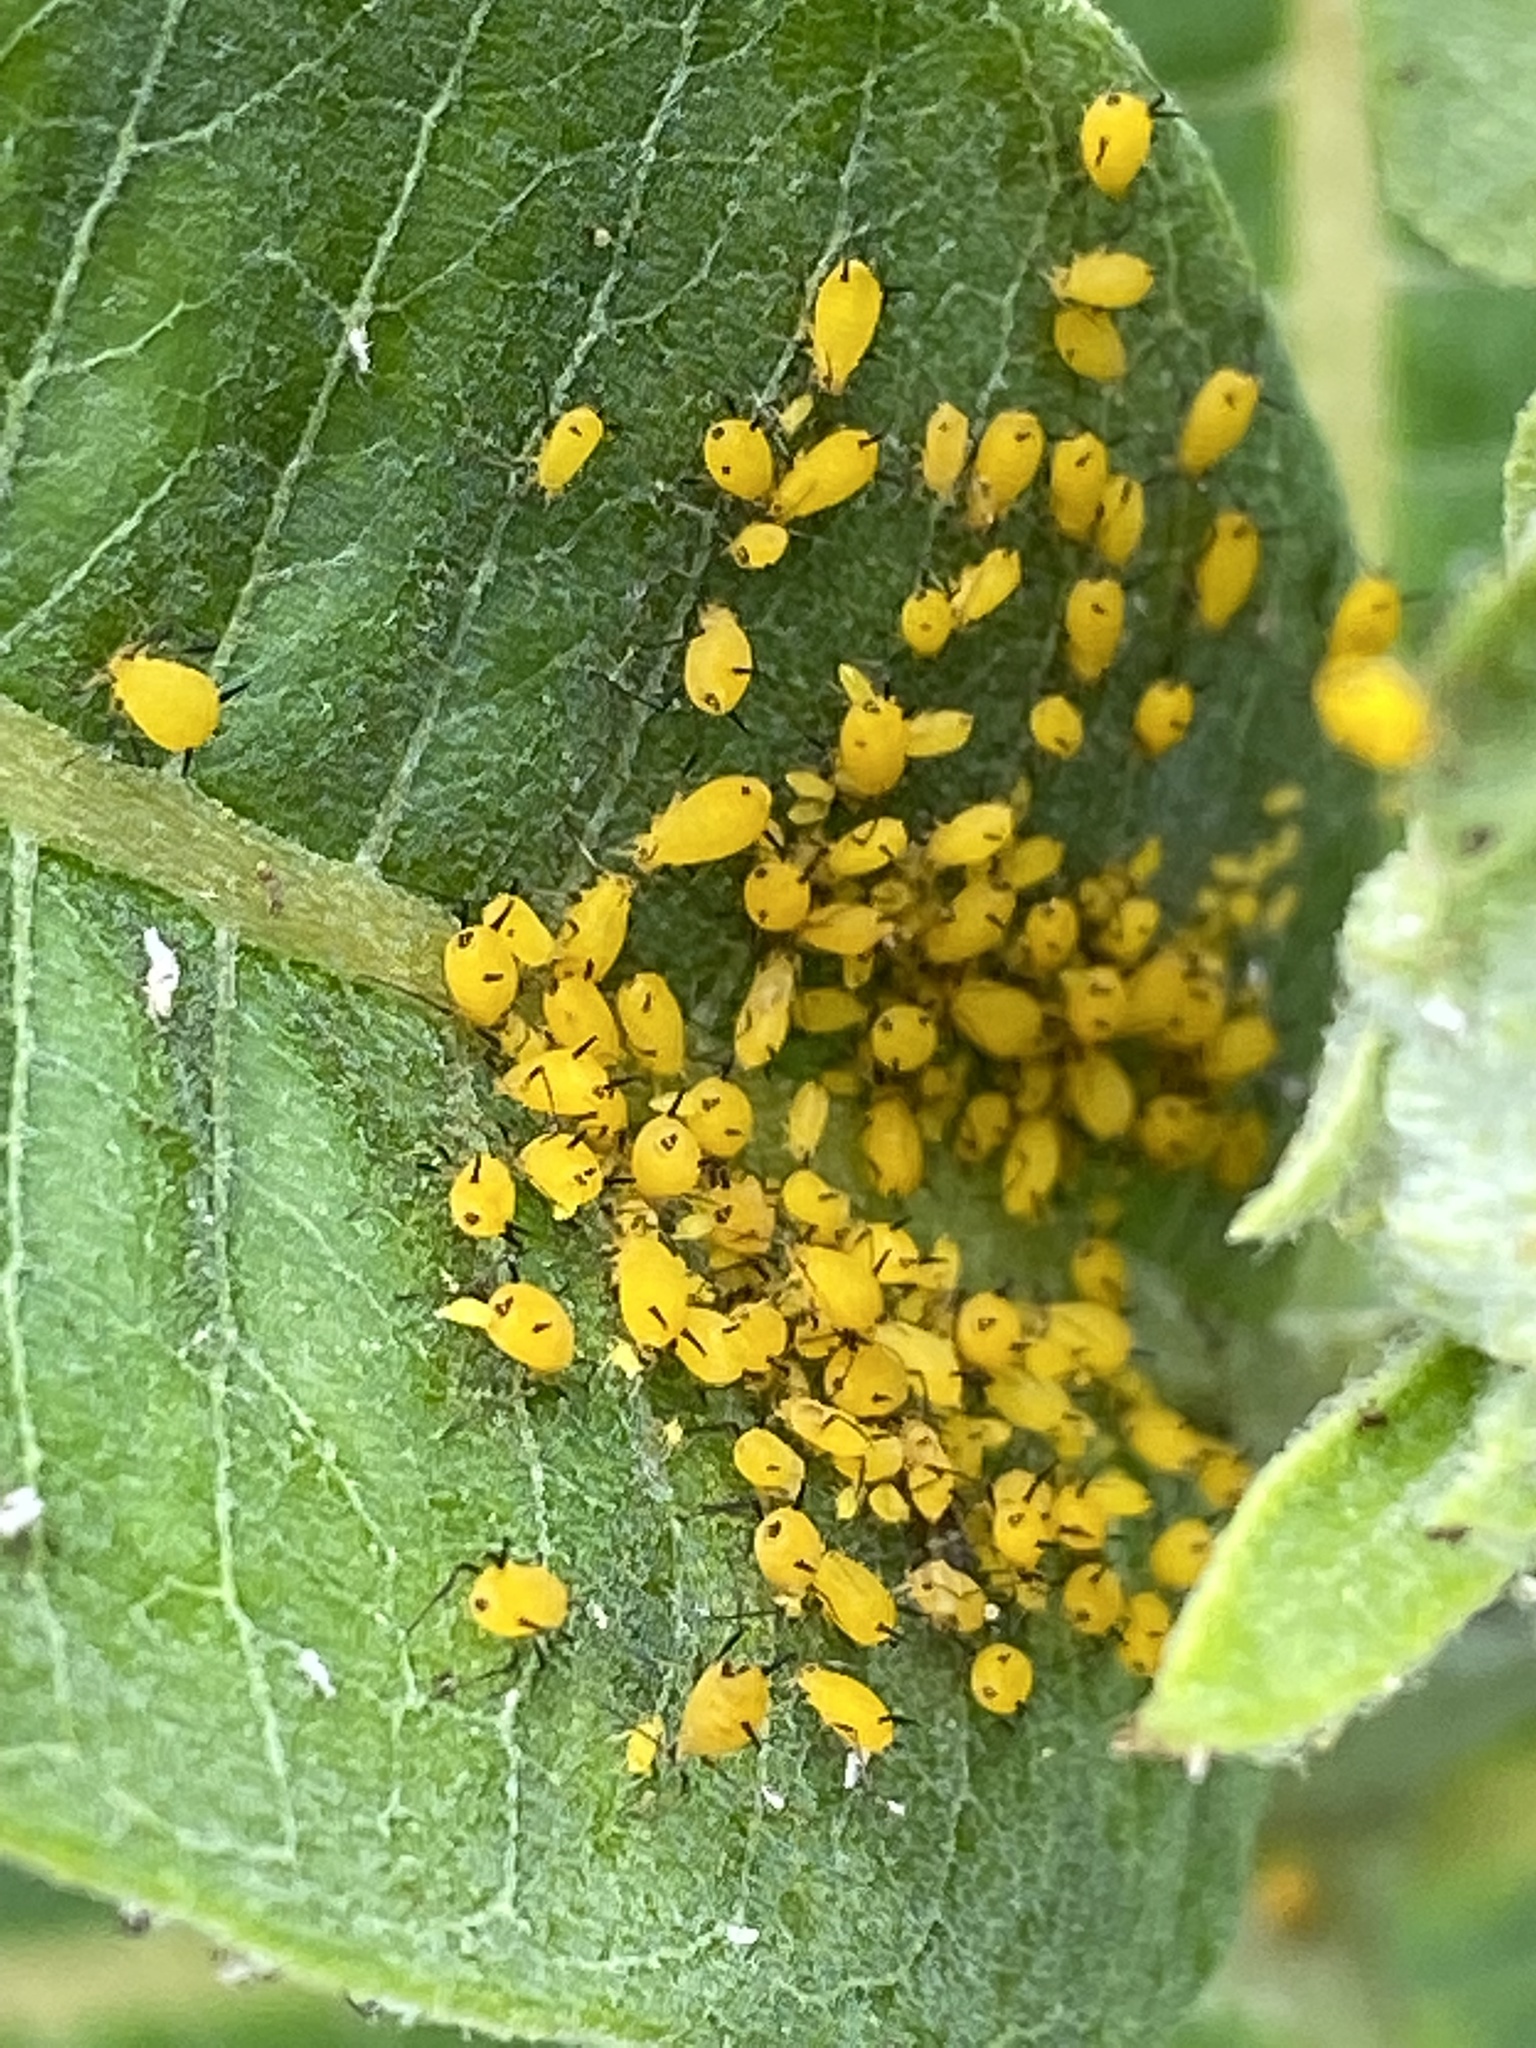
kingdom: Animalia
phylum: Arthropoda
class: Insecta
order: Hemiptera
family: Aphididae
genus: Aphis
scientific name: Aphis nerii
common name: Oleander aphid
